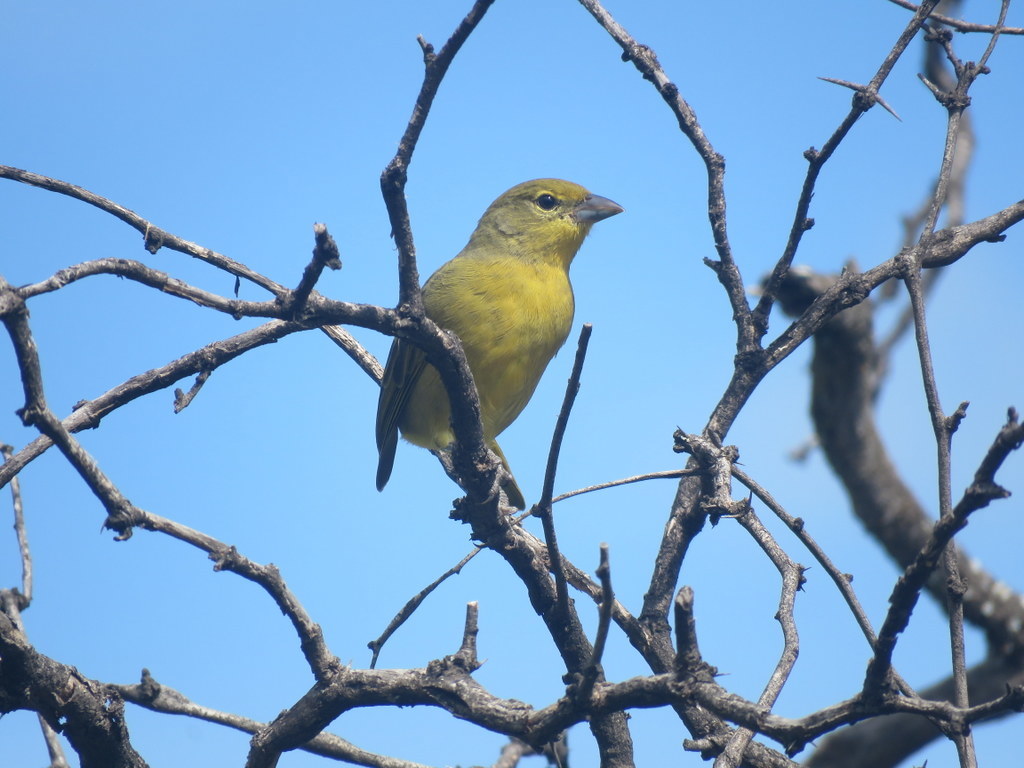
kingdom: Animalia
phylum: Chordata
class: Aves
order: Passeriformes
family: Cardinalidae
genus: Piranga
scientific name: Piranga flava
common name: Red tanager
